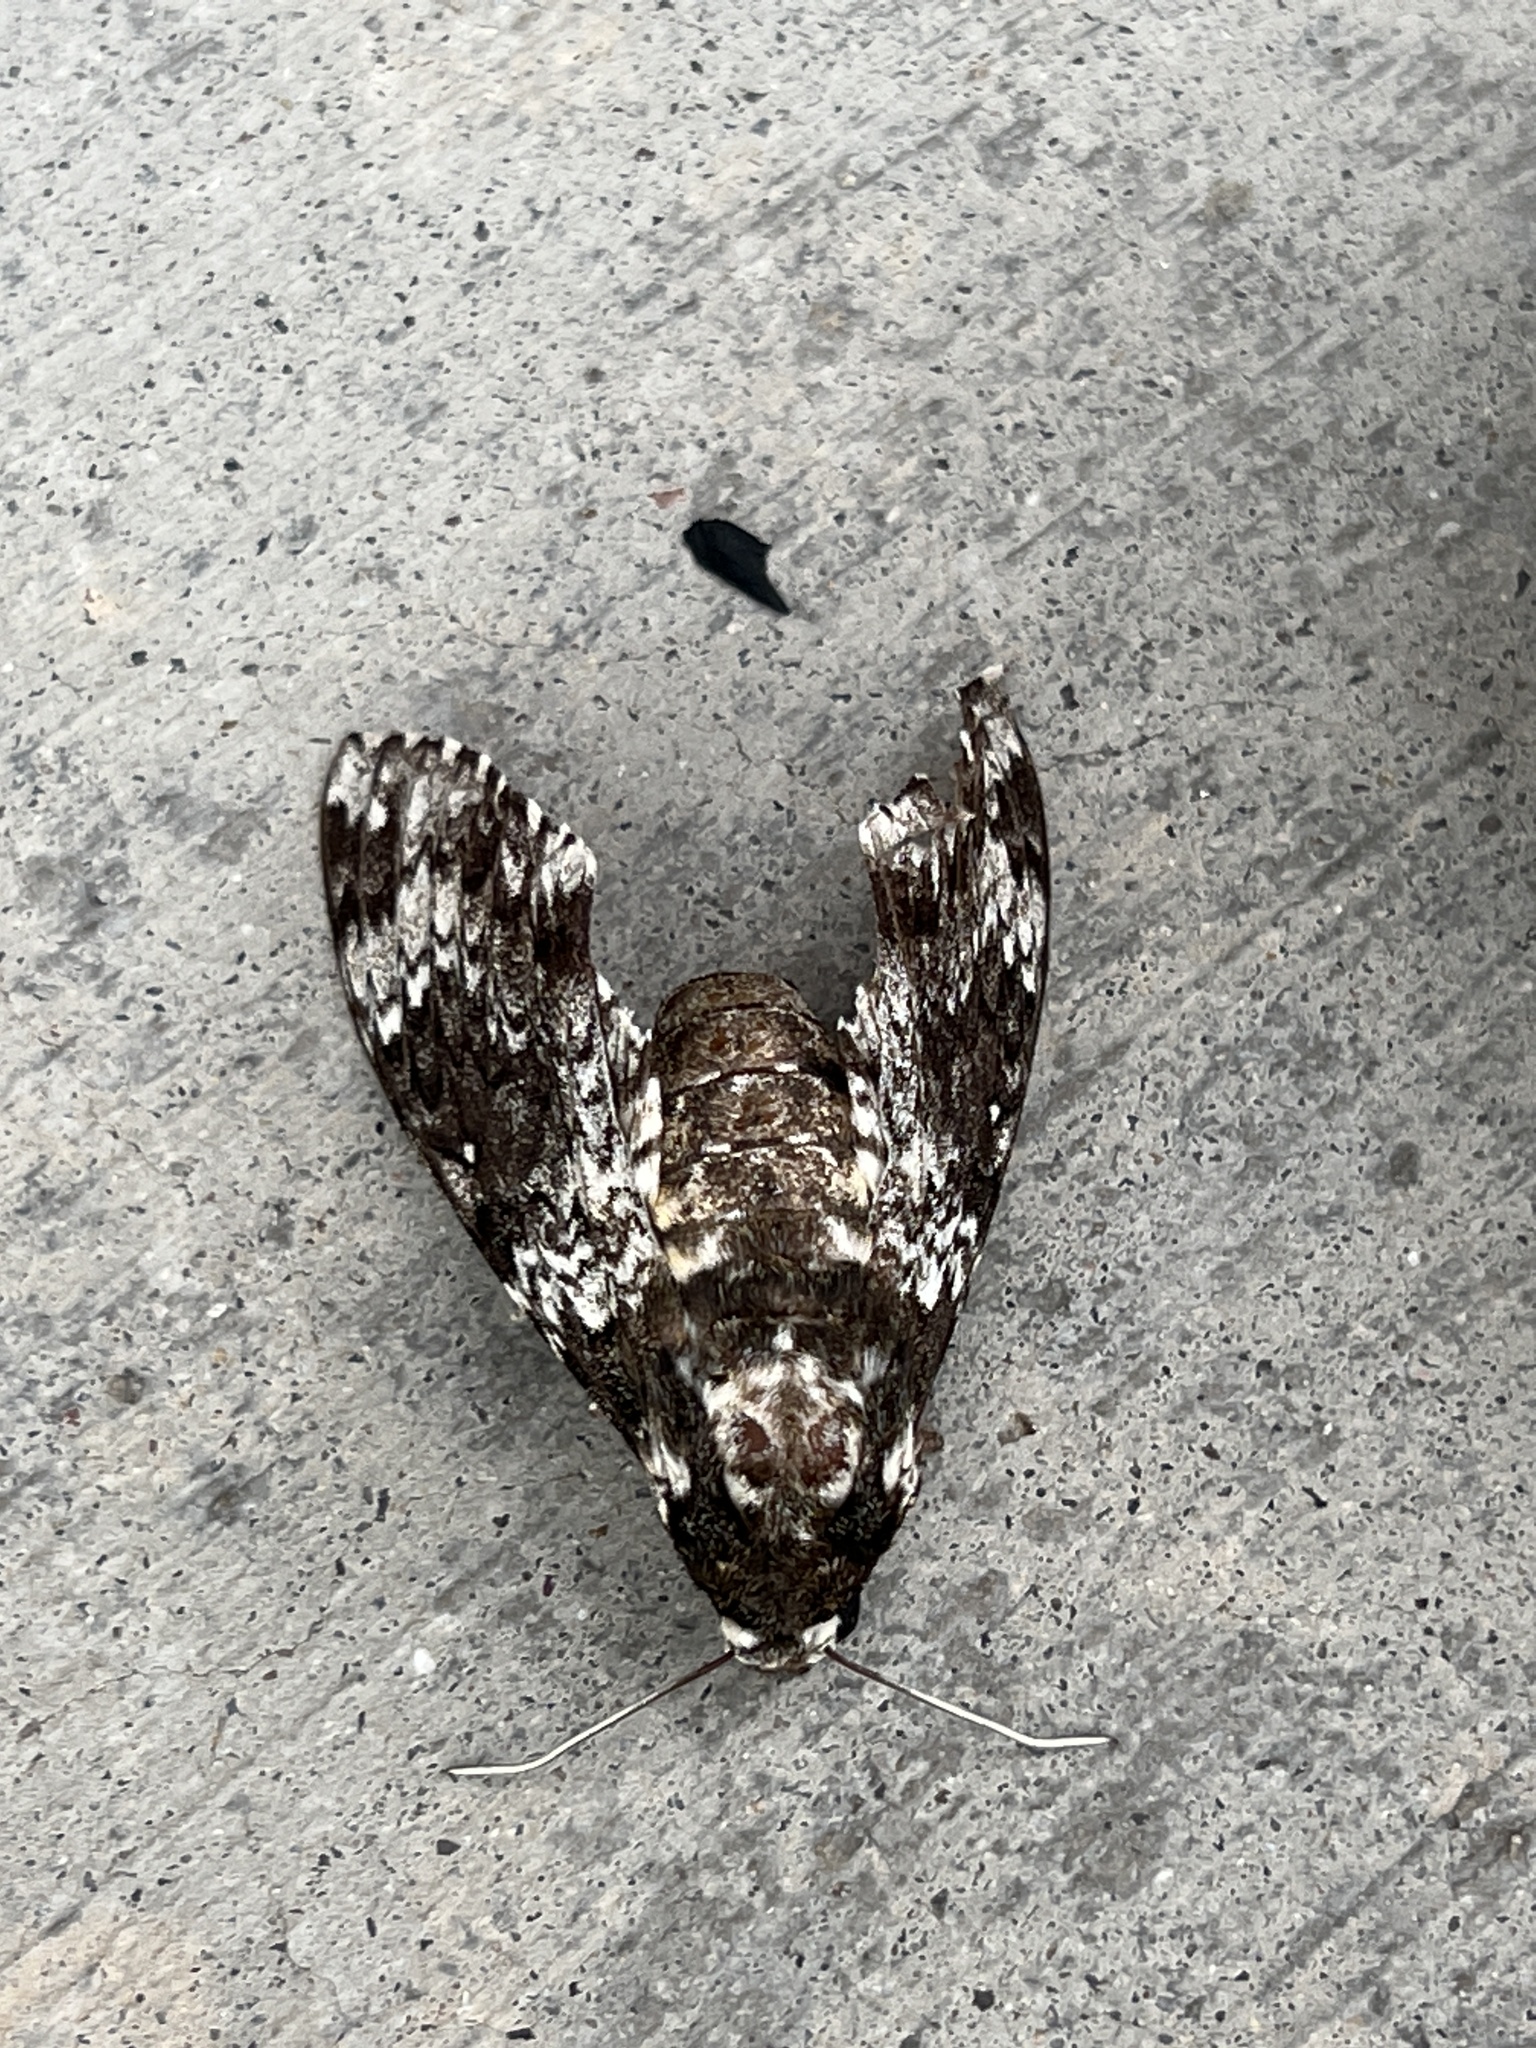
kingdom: Animalia
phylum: Arthropoda
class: Insecta
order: Lepidoptera
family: Sphingidae
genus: Manduca
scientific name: Manduca rustica
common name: Rustic sphinx
